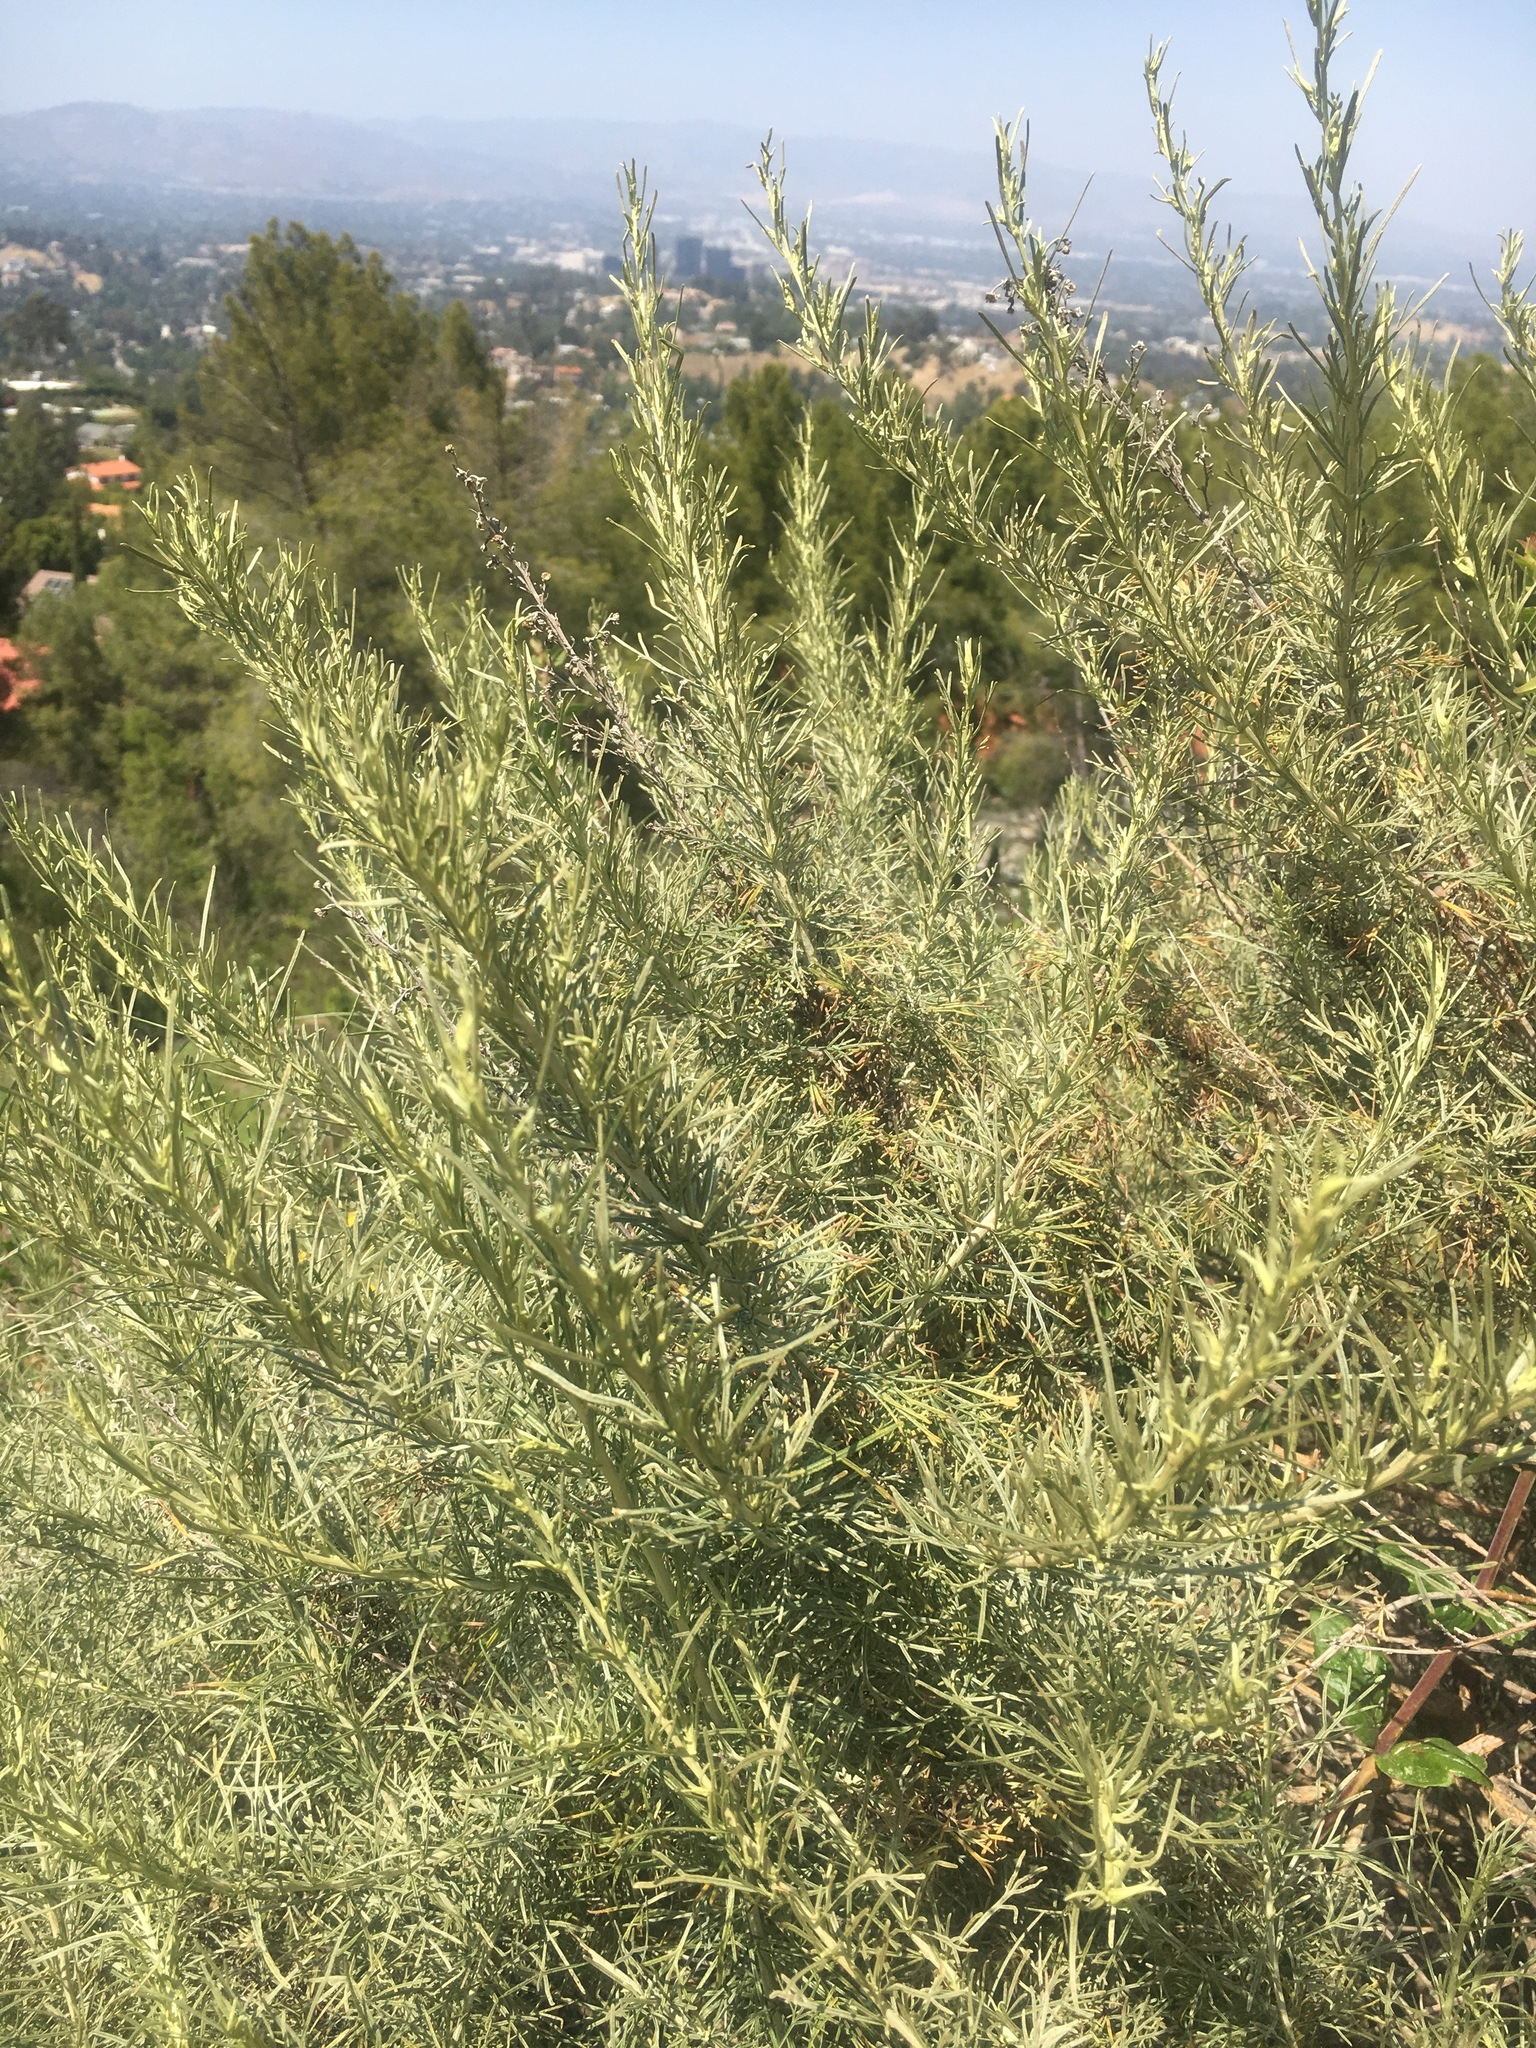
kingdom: Plantae
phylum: Tracheophyta
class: Magnoliopsida
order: Asterales
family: Asteraceae
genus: Artemisia
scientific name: Artemisia californica
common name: California sagebrush
